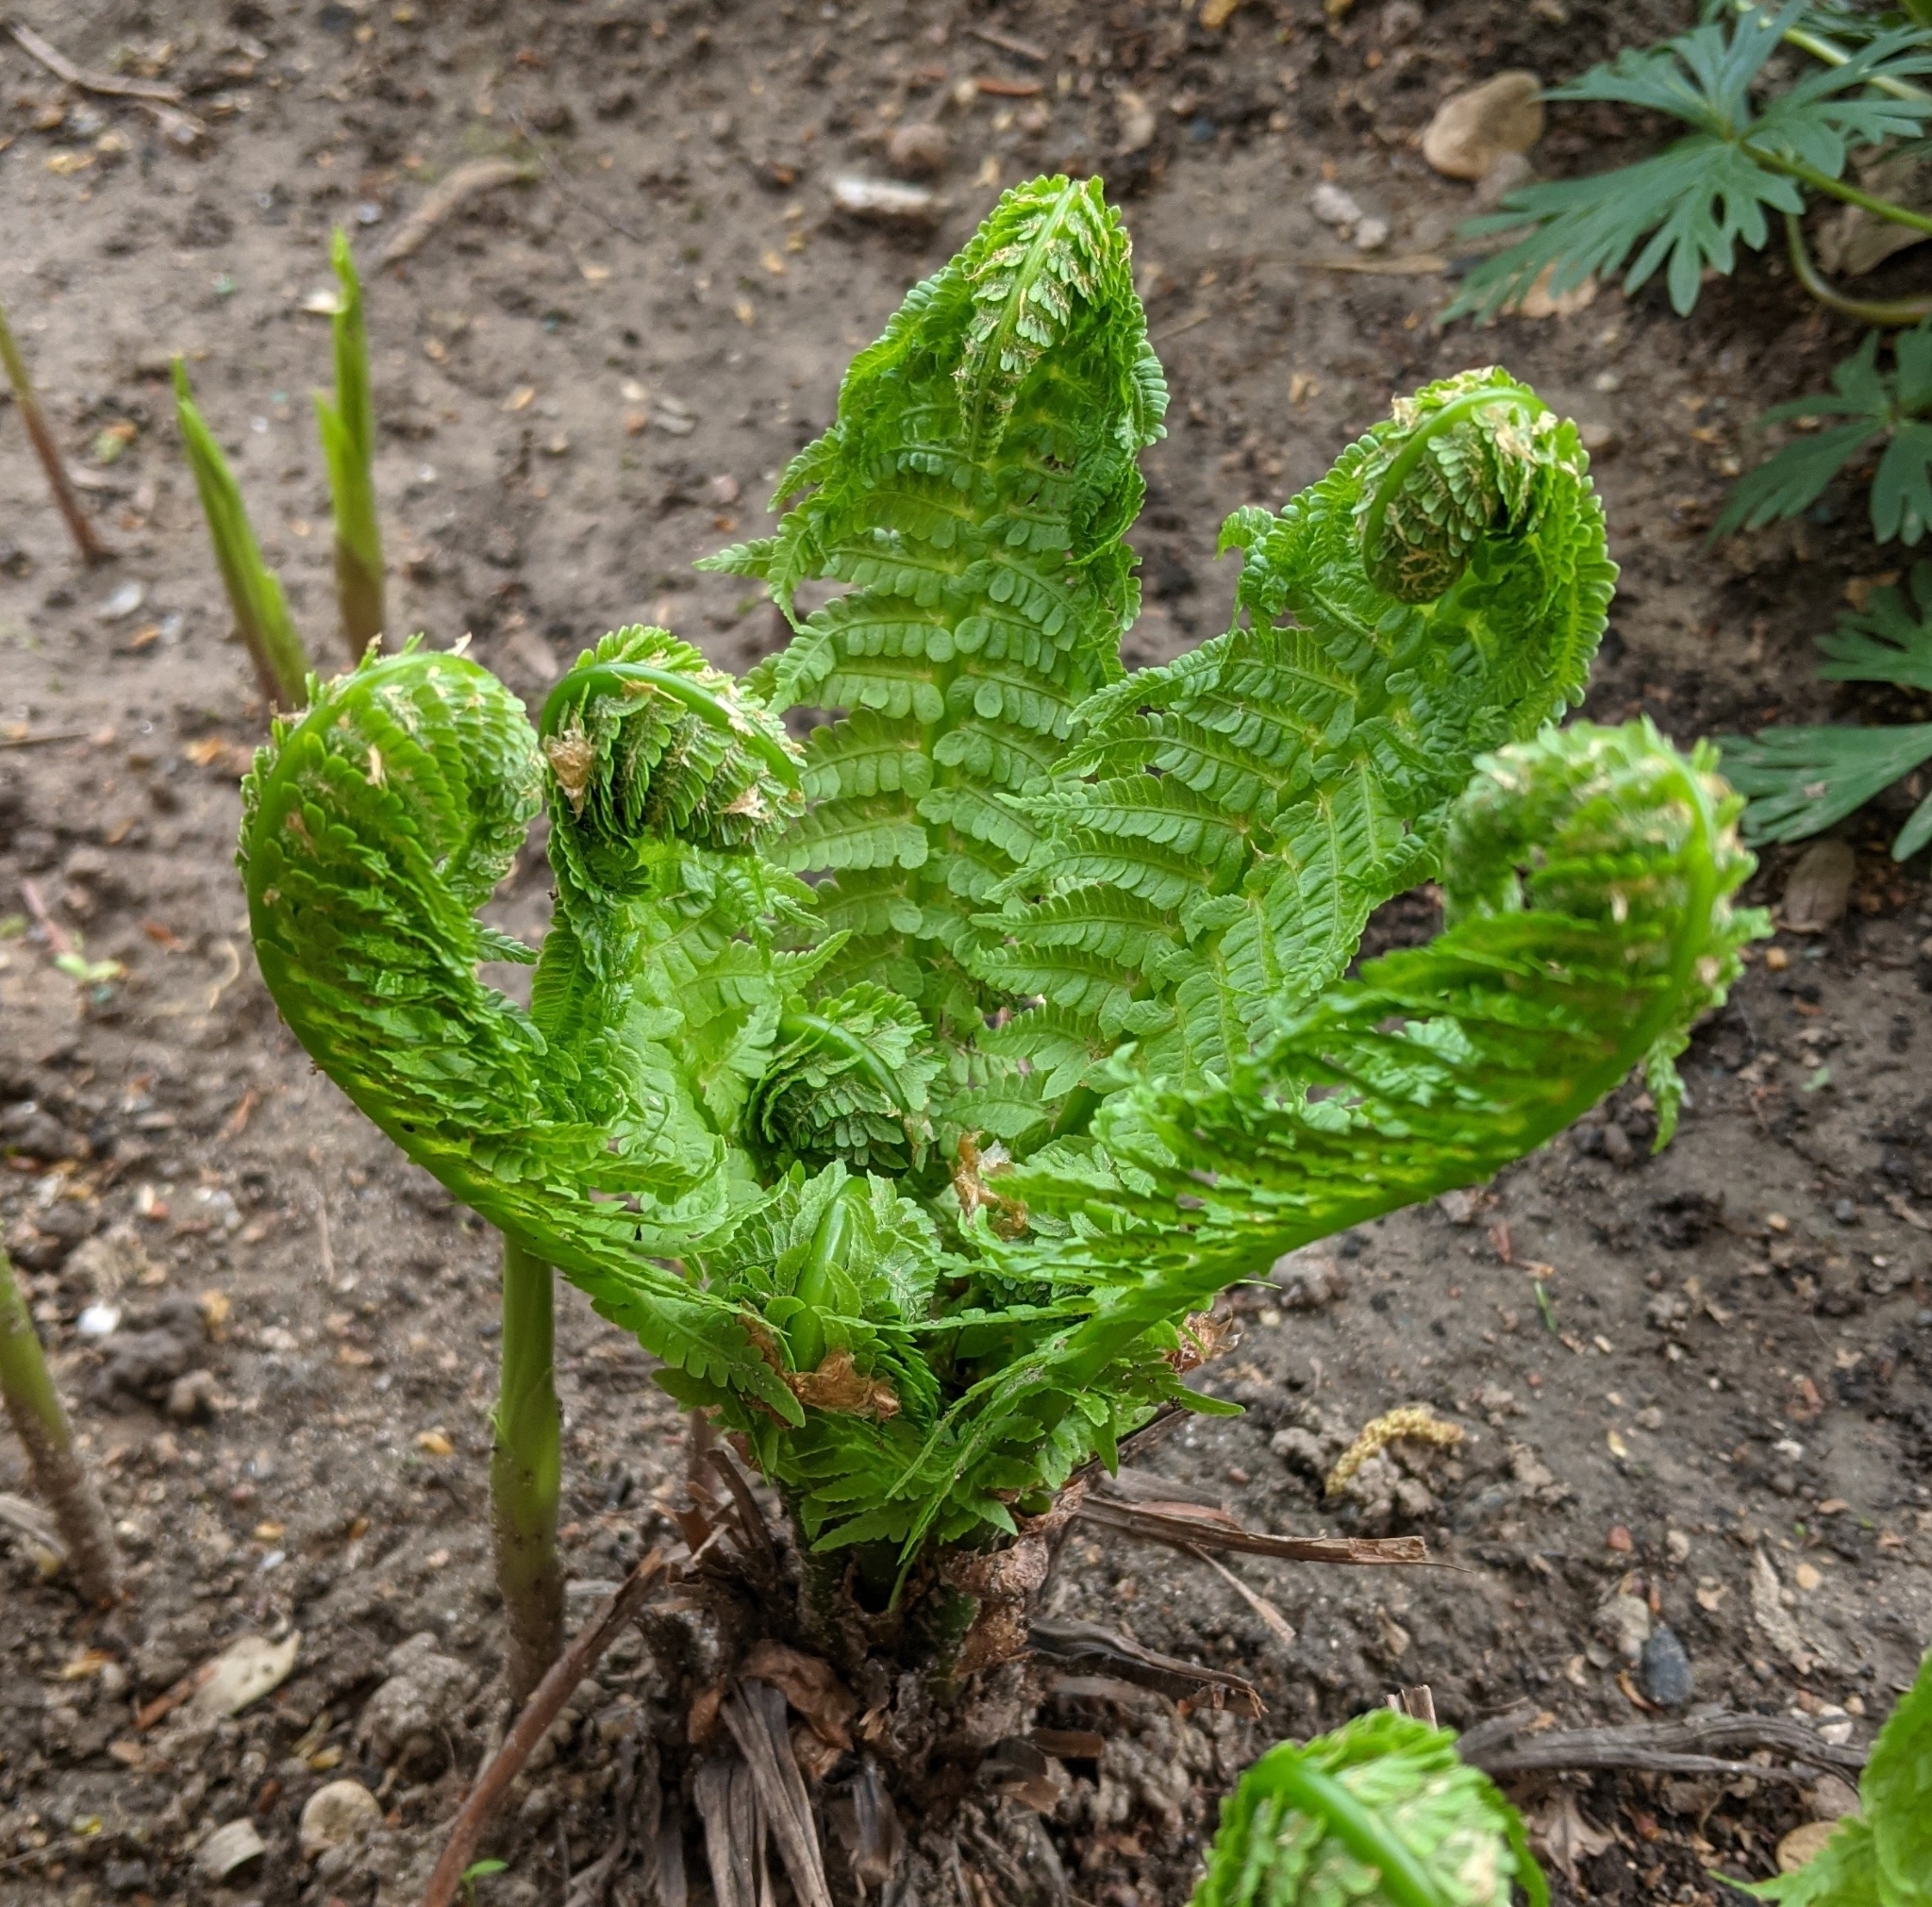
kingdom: Plantae
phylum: Tracheophyta
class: Polypodiopsida
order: Polypodiales
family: Onocleaceae
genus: Matteuccia
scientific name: Matteuccia struthiopteris
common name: Ostrich fern
